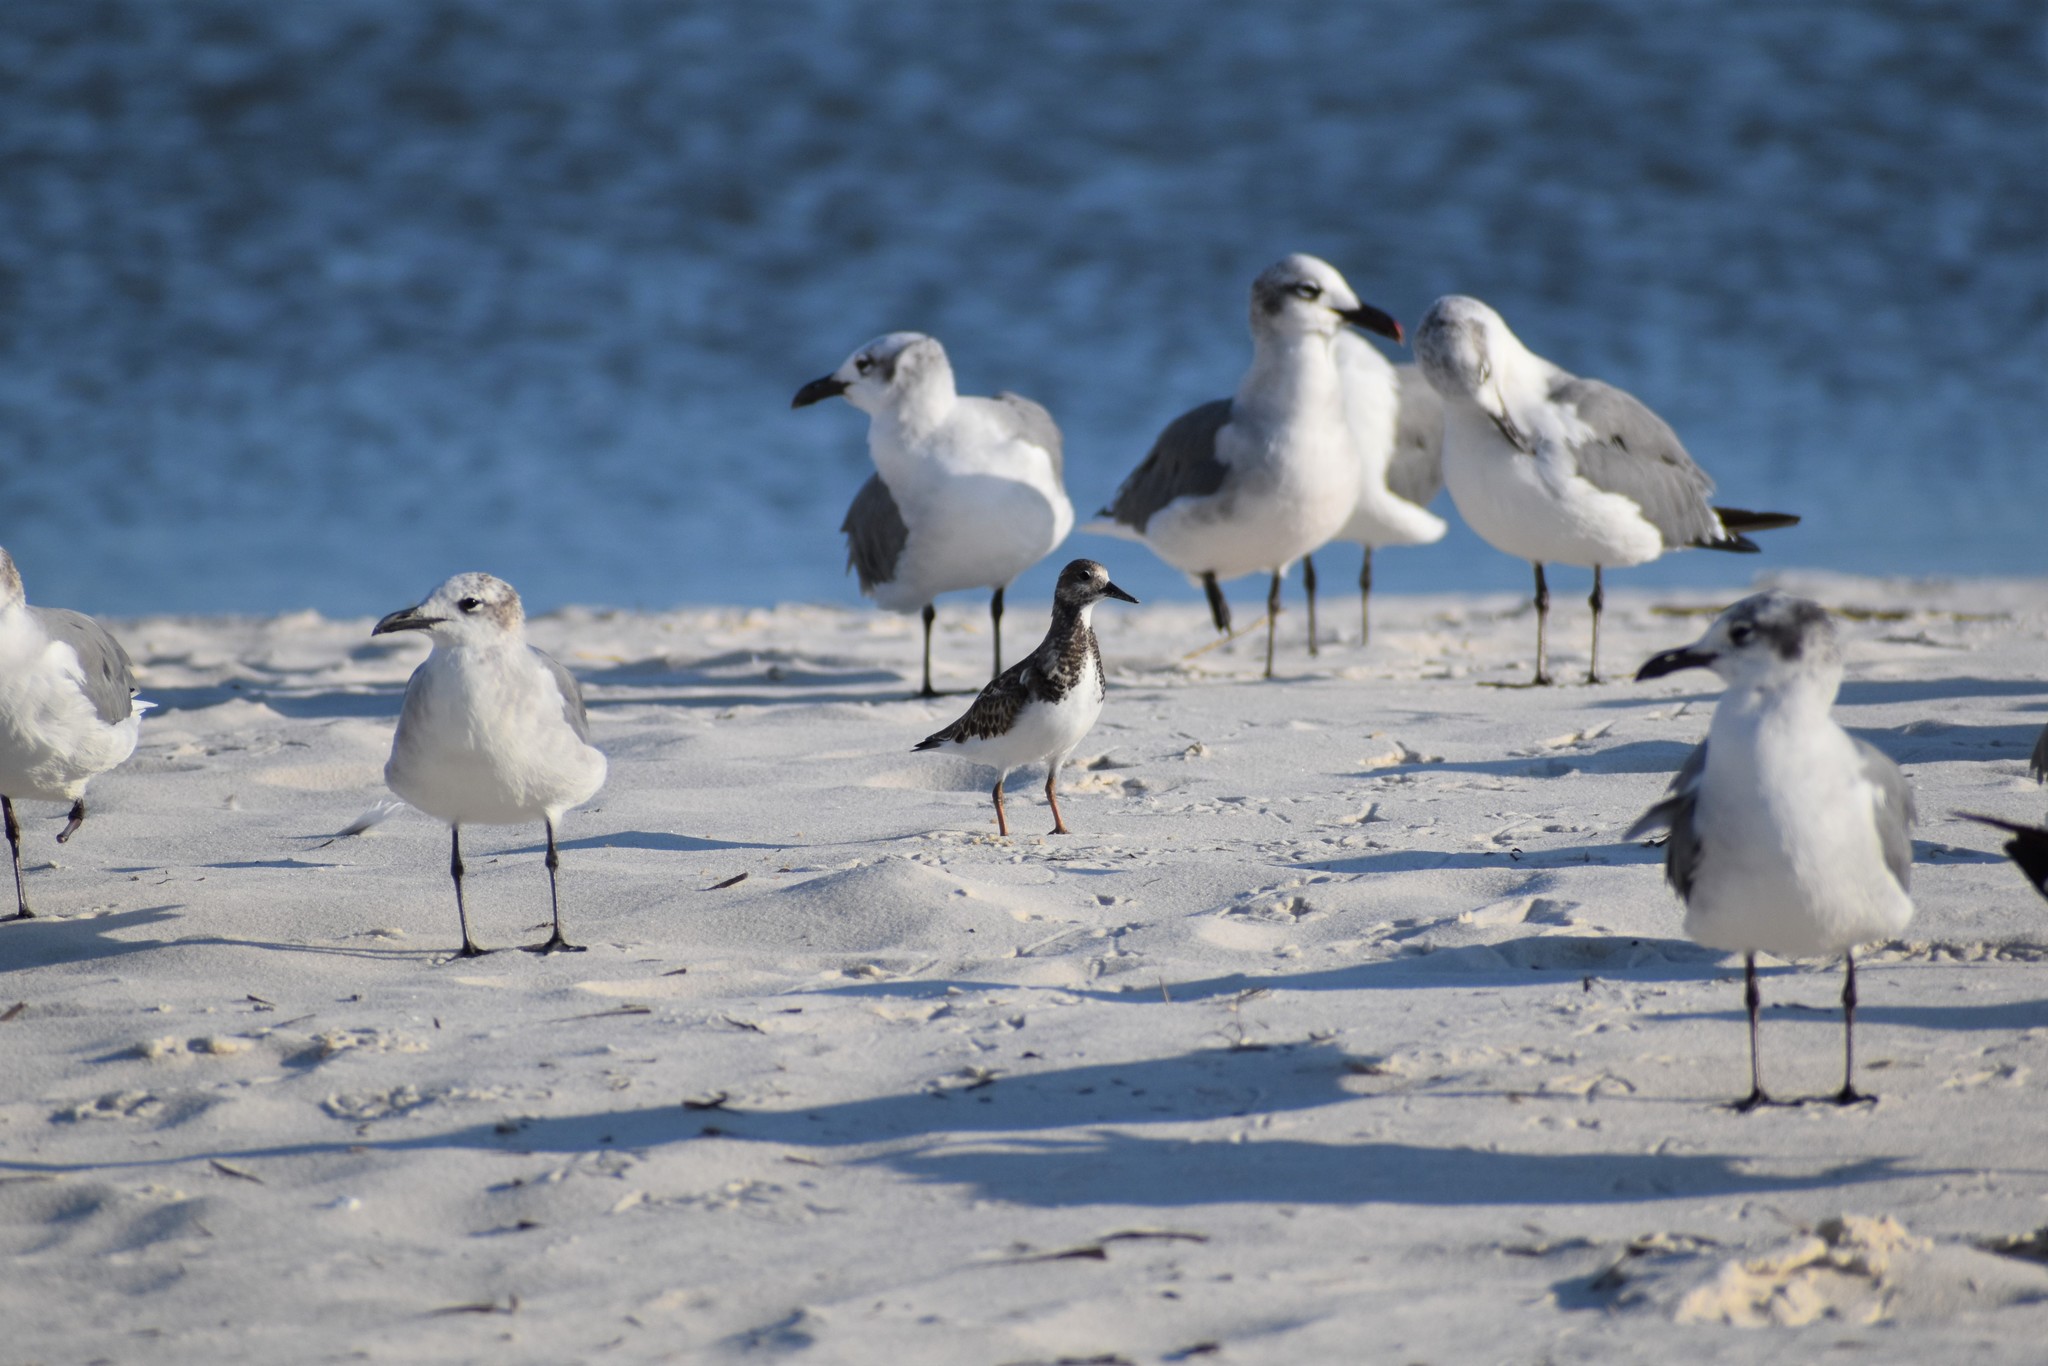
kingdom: Animalia
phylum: Chordata
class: Aves
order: Charadriiformes
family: Scolopacidae
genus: Arenaria
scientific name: Arenaria interpres
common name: Ruddy turnstone
